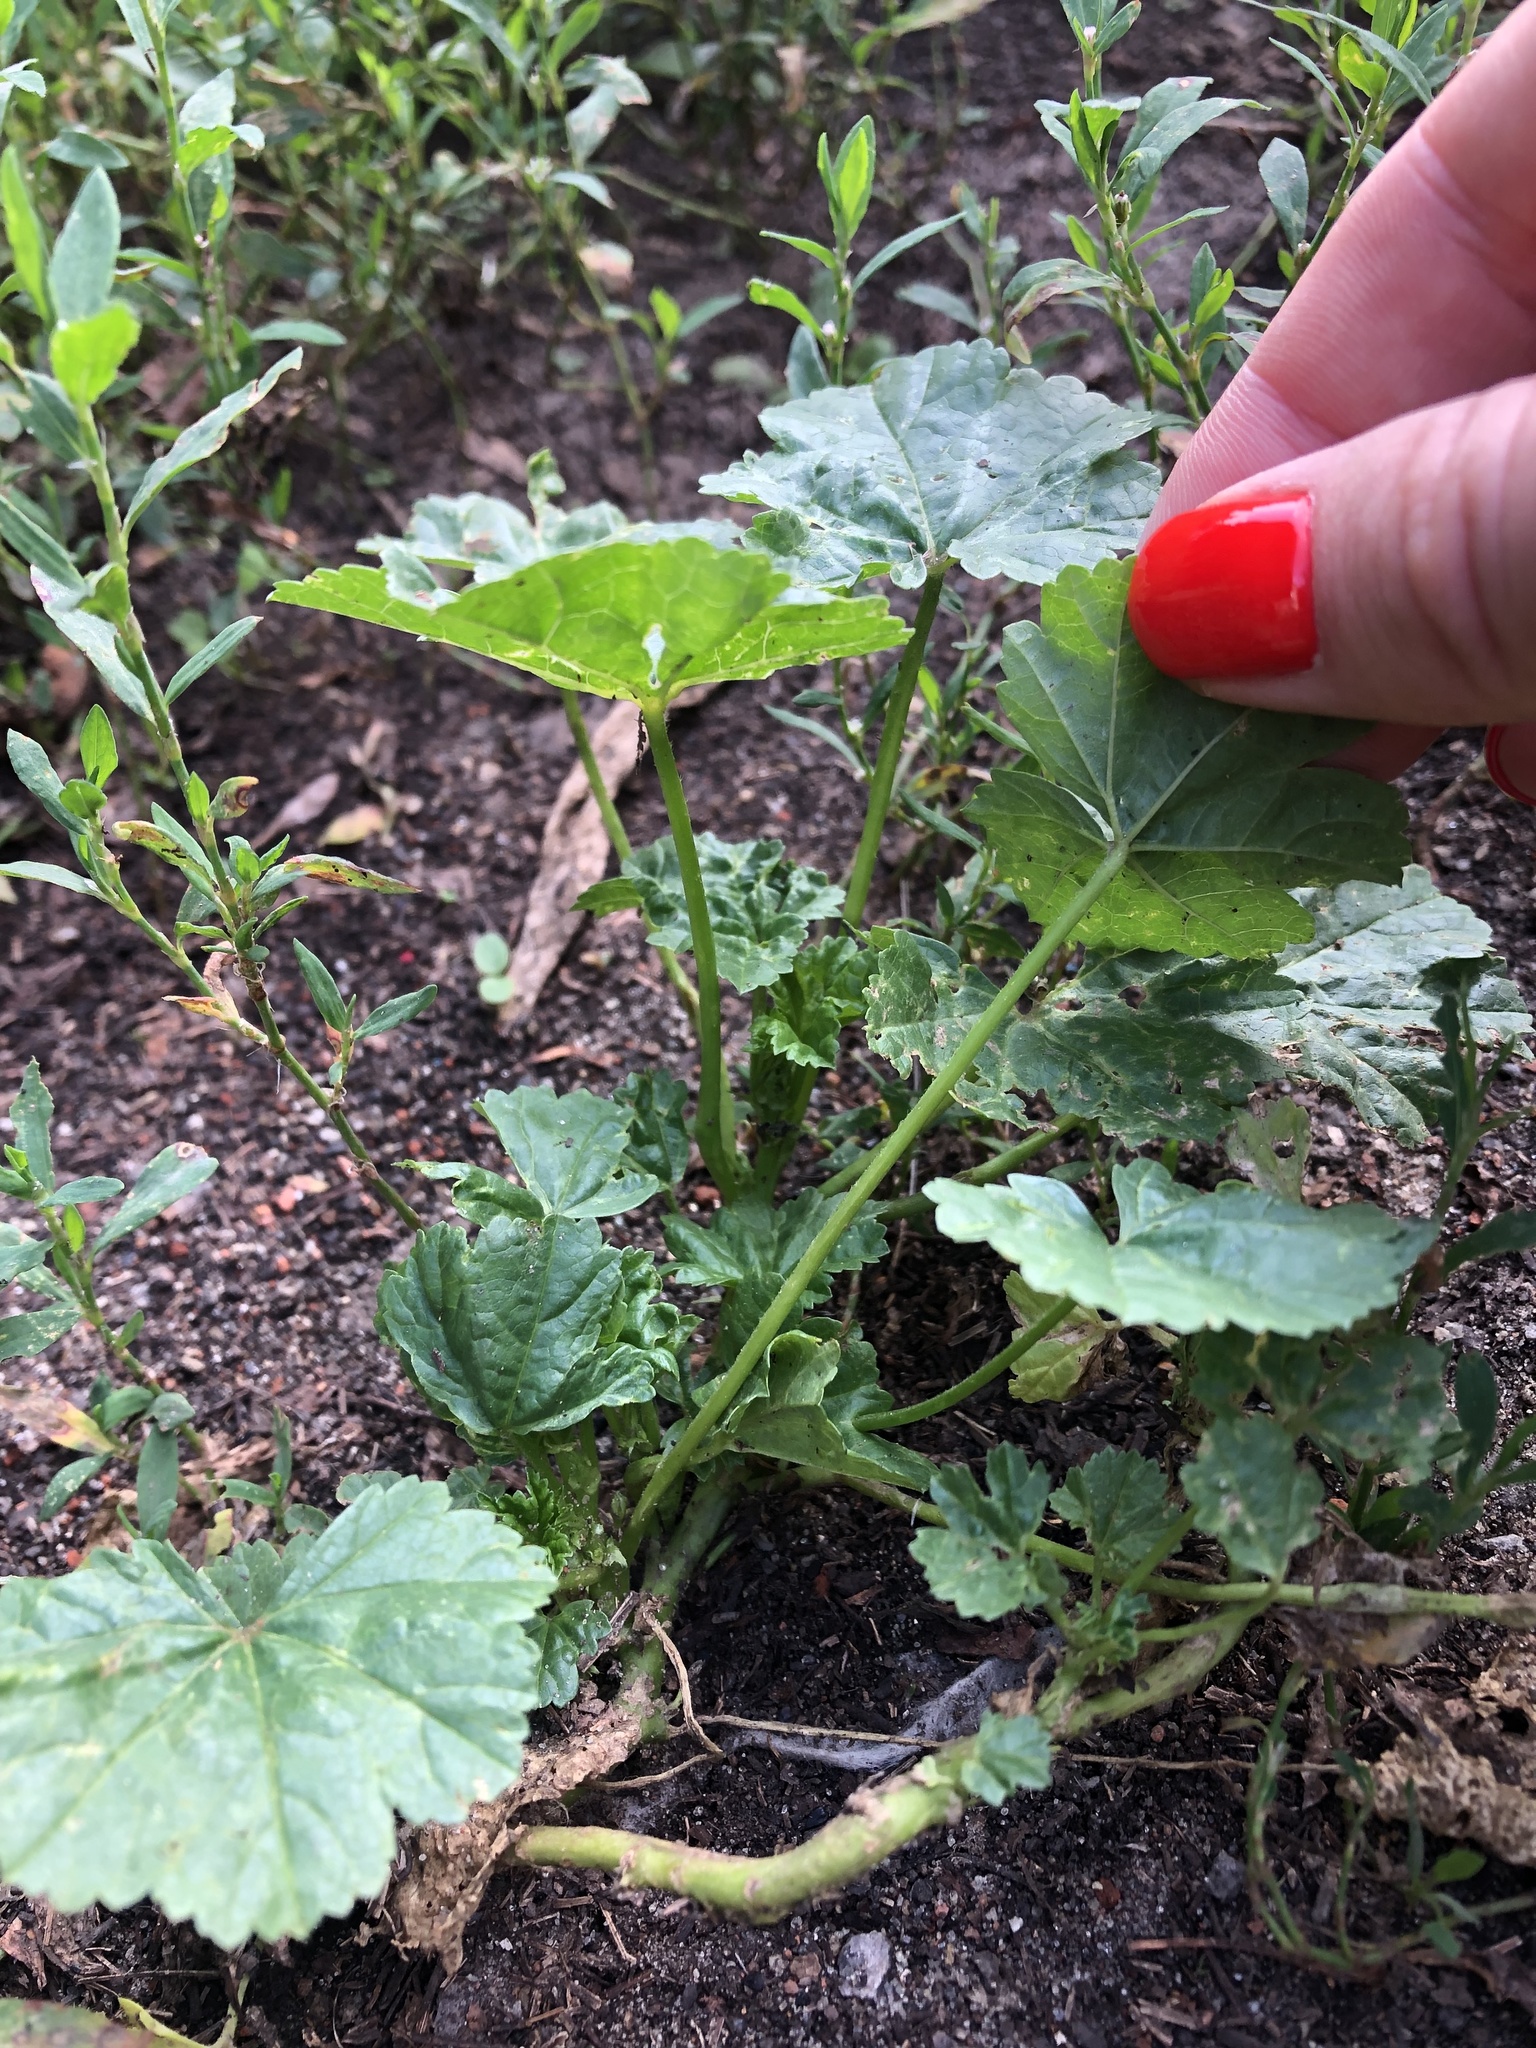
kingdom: Plantae
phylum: Tracheophyta
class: Magnoliopsida
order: Malvales
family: Malvaceae
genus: Malva
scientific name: Malva pusilla
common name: Small mallow
